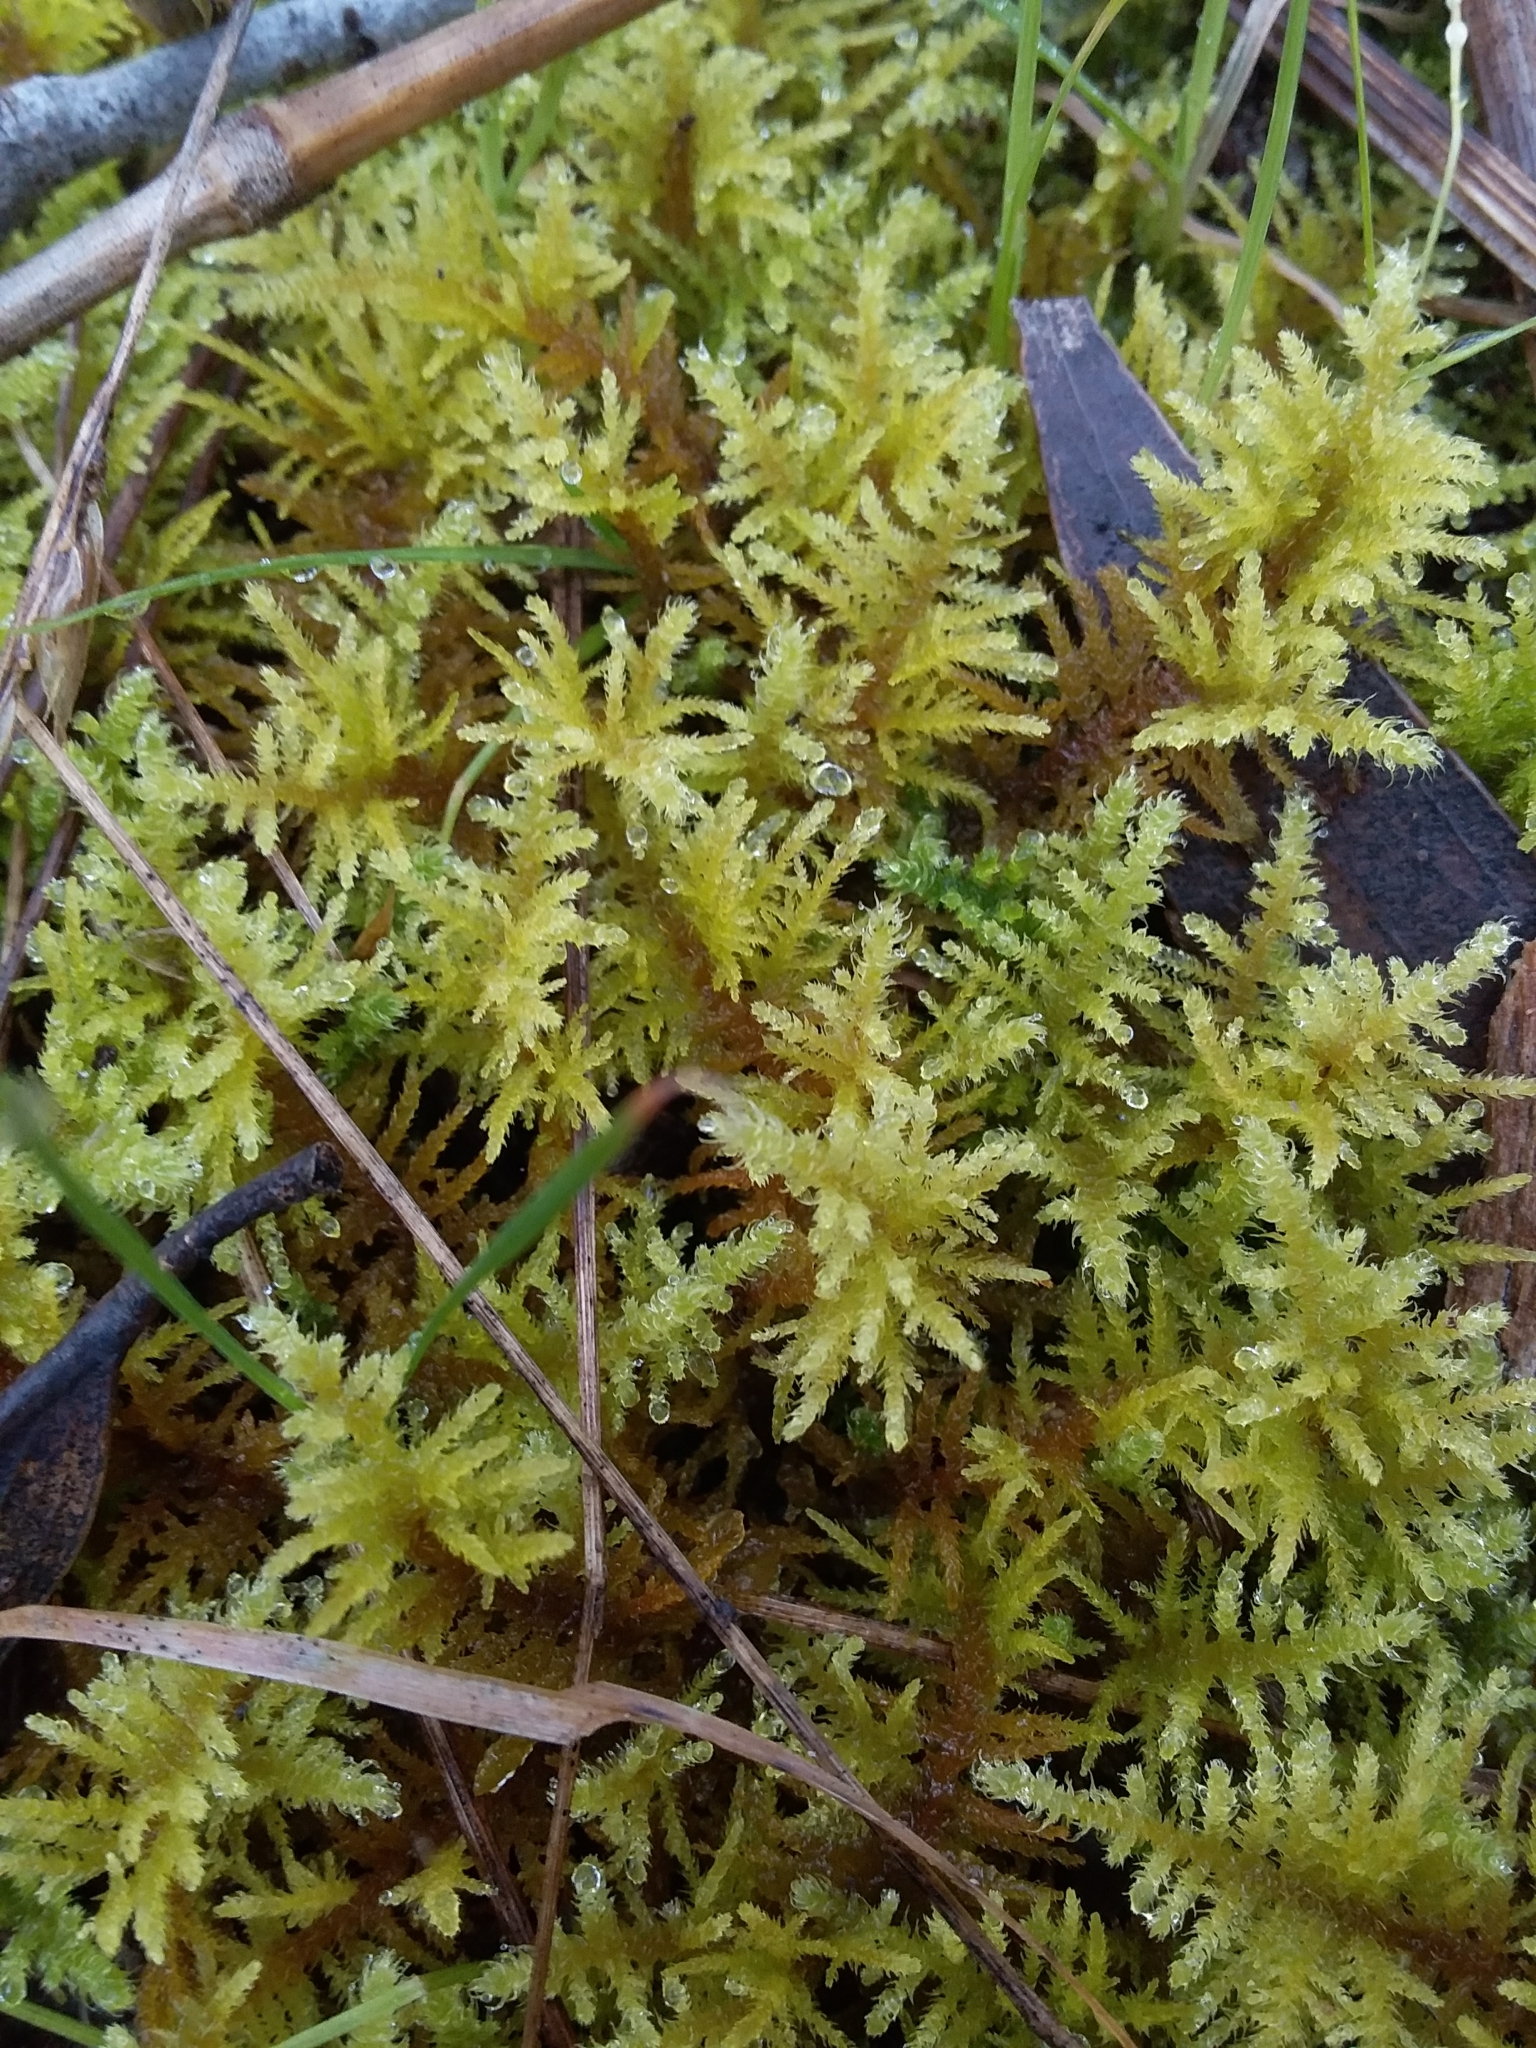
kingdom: Plantae
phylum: Bryophyta
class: Bryopsida
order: Hypnales
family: Thuidiaceae
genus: Thuidiopsis
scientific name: Thuidiopsis sparsa
